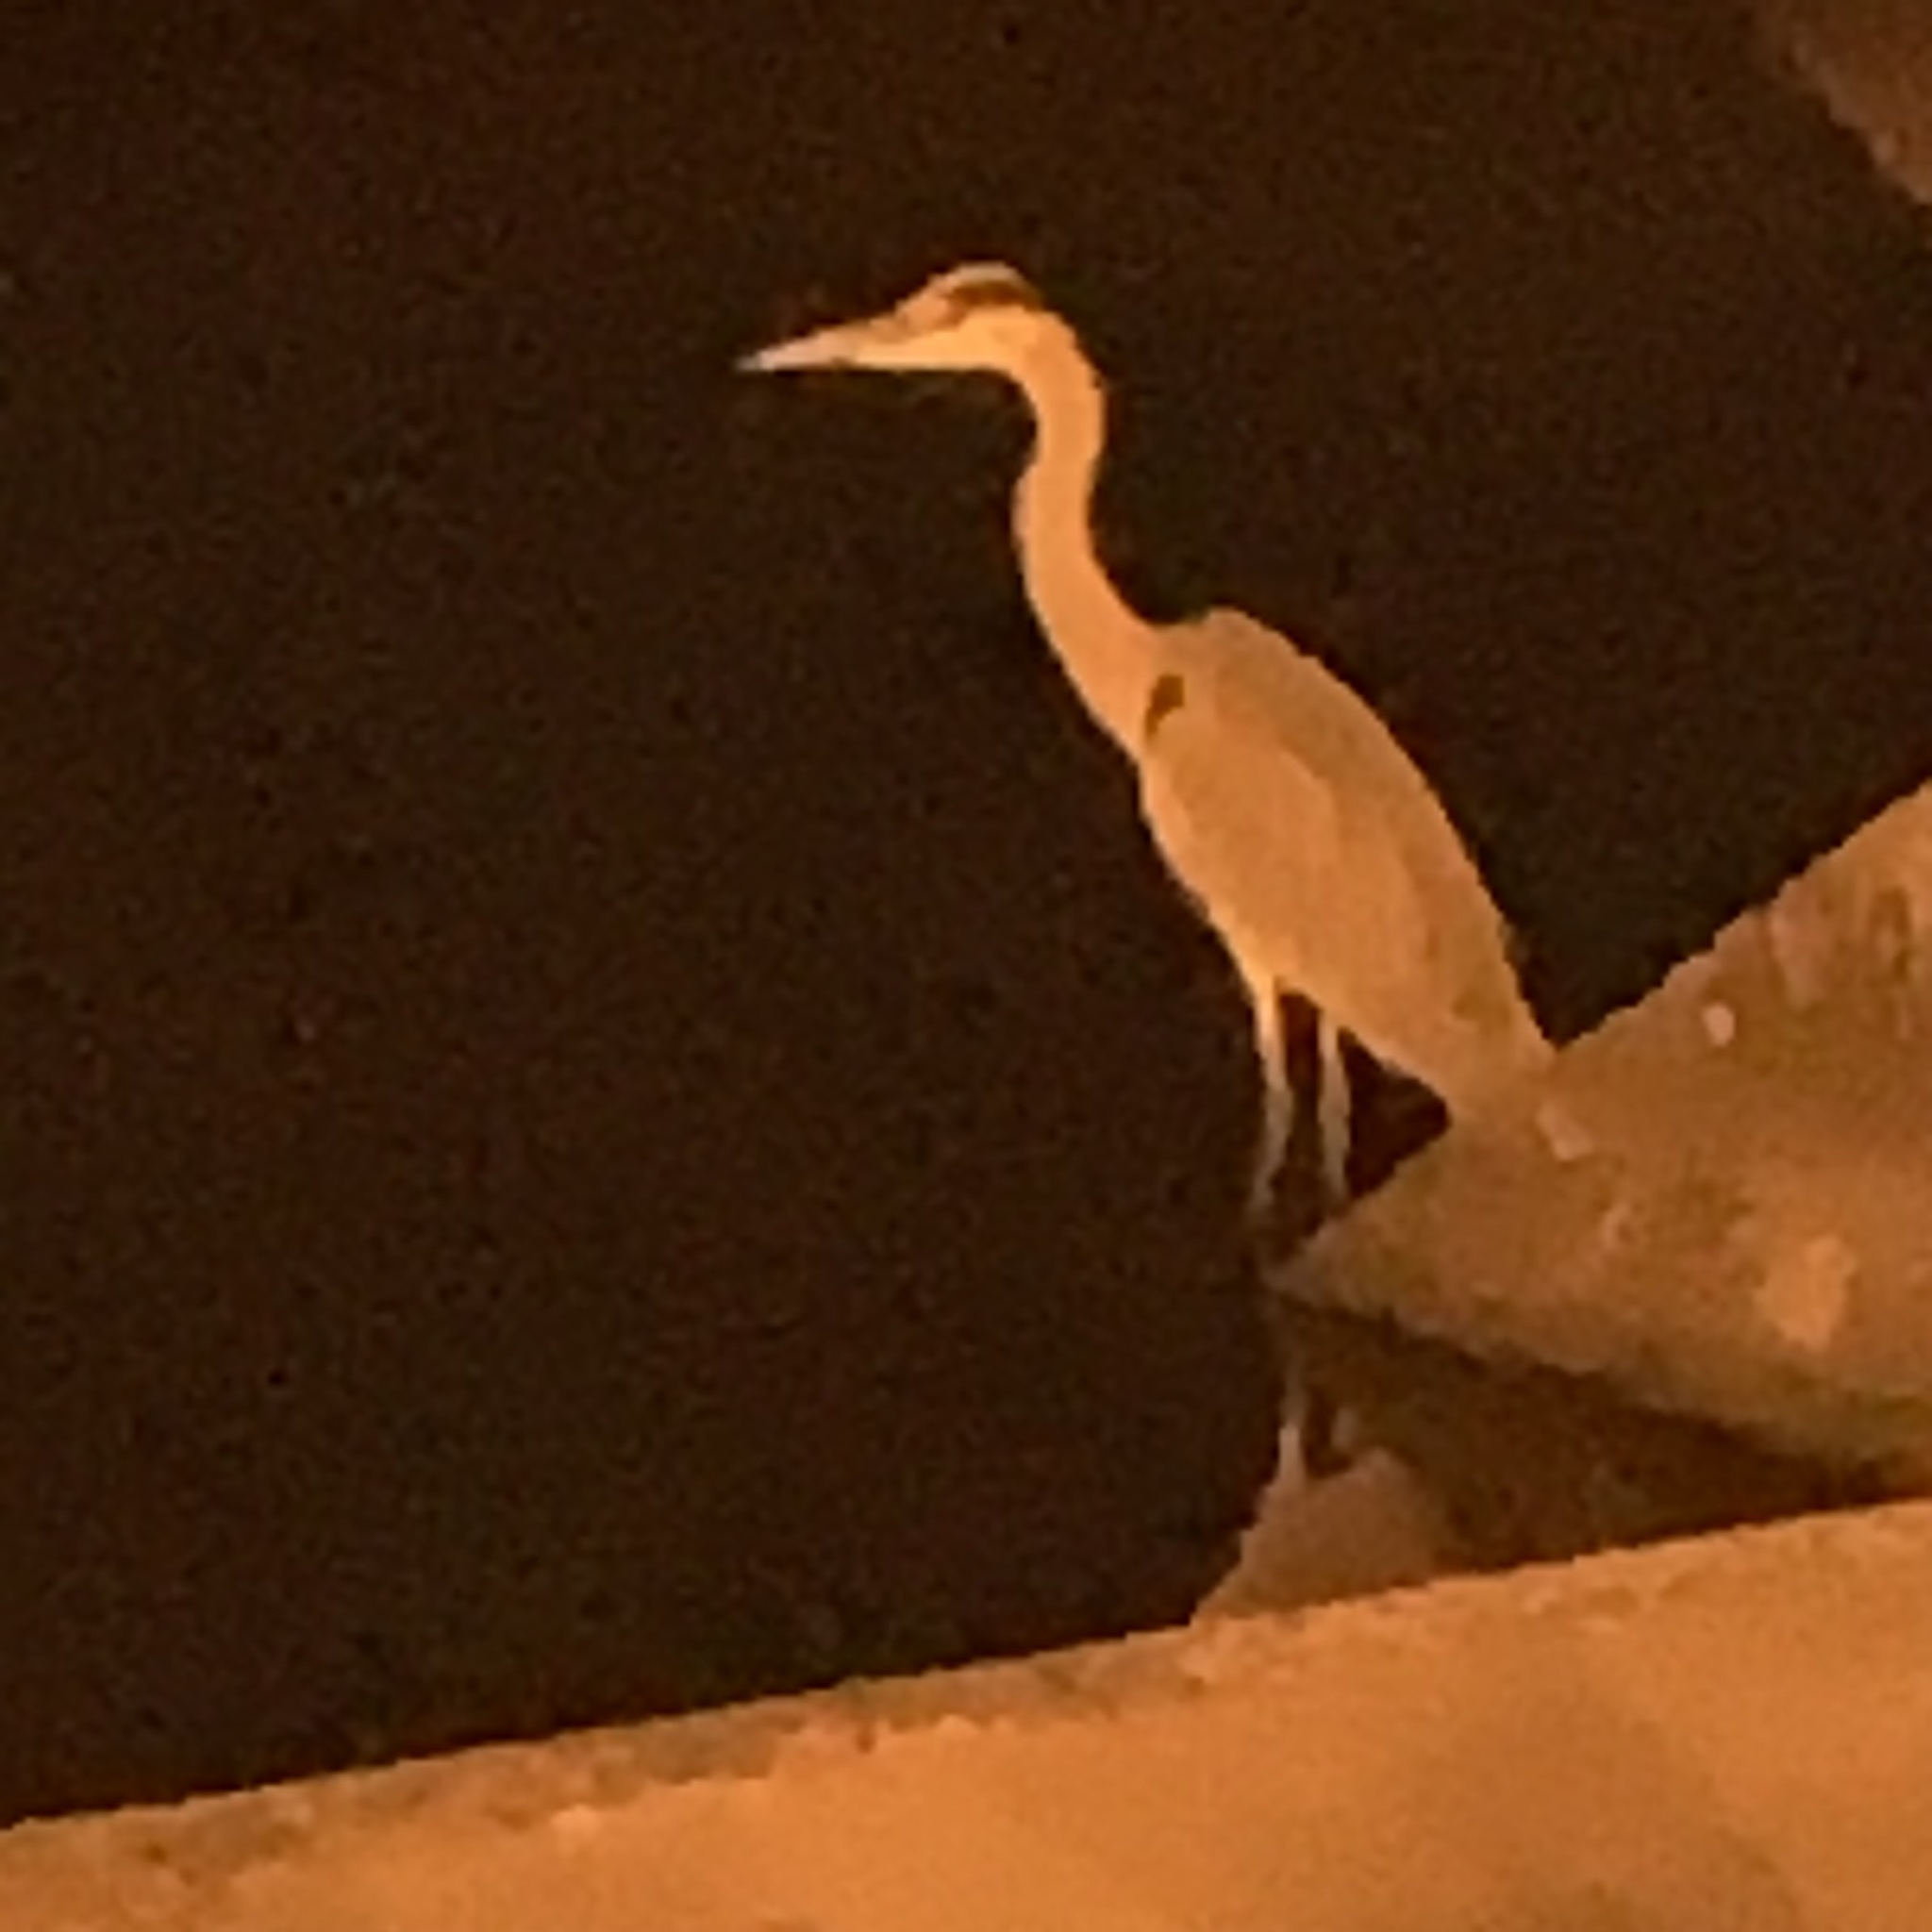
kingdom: Animalia
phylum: Chordata
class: Aves
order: Pelecaniformes
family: Ardeidae
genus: Ardea
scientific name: Ardea cinerea
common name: Grey heron
